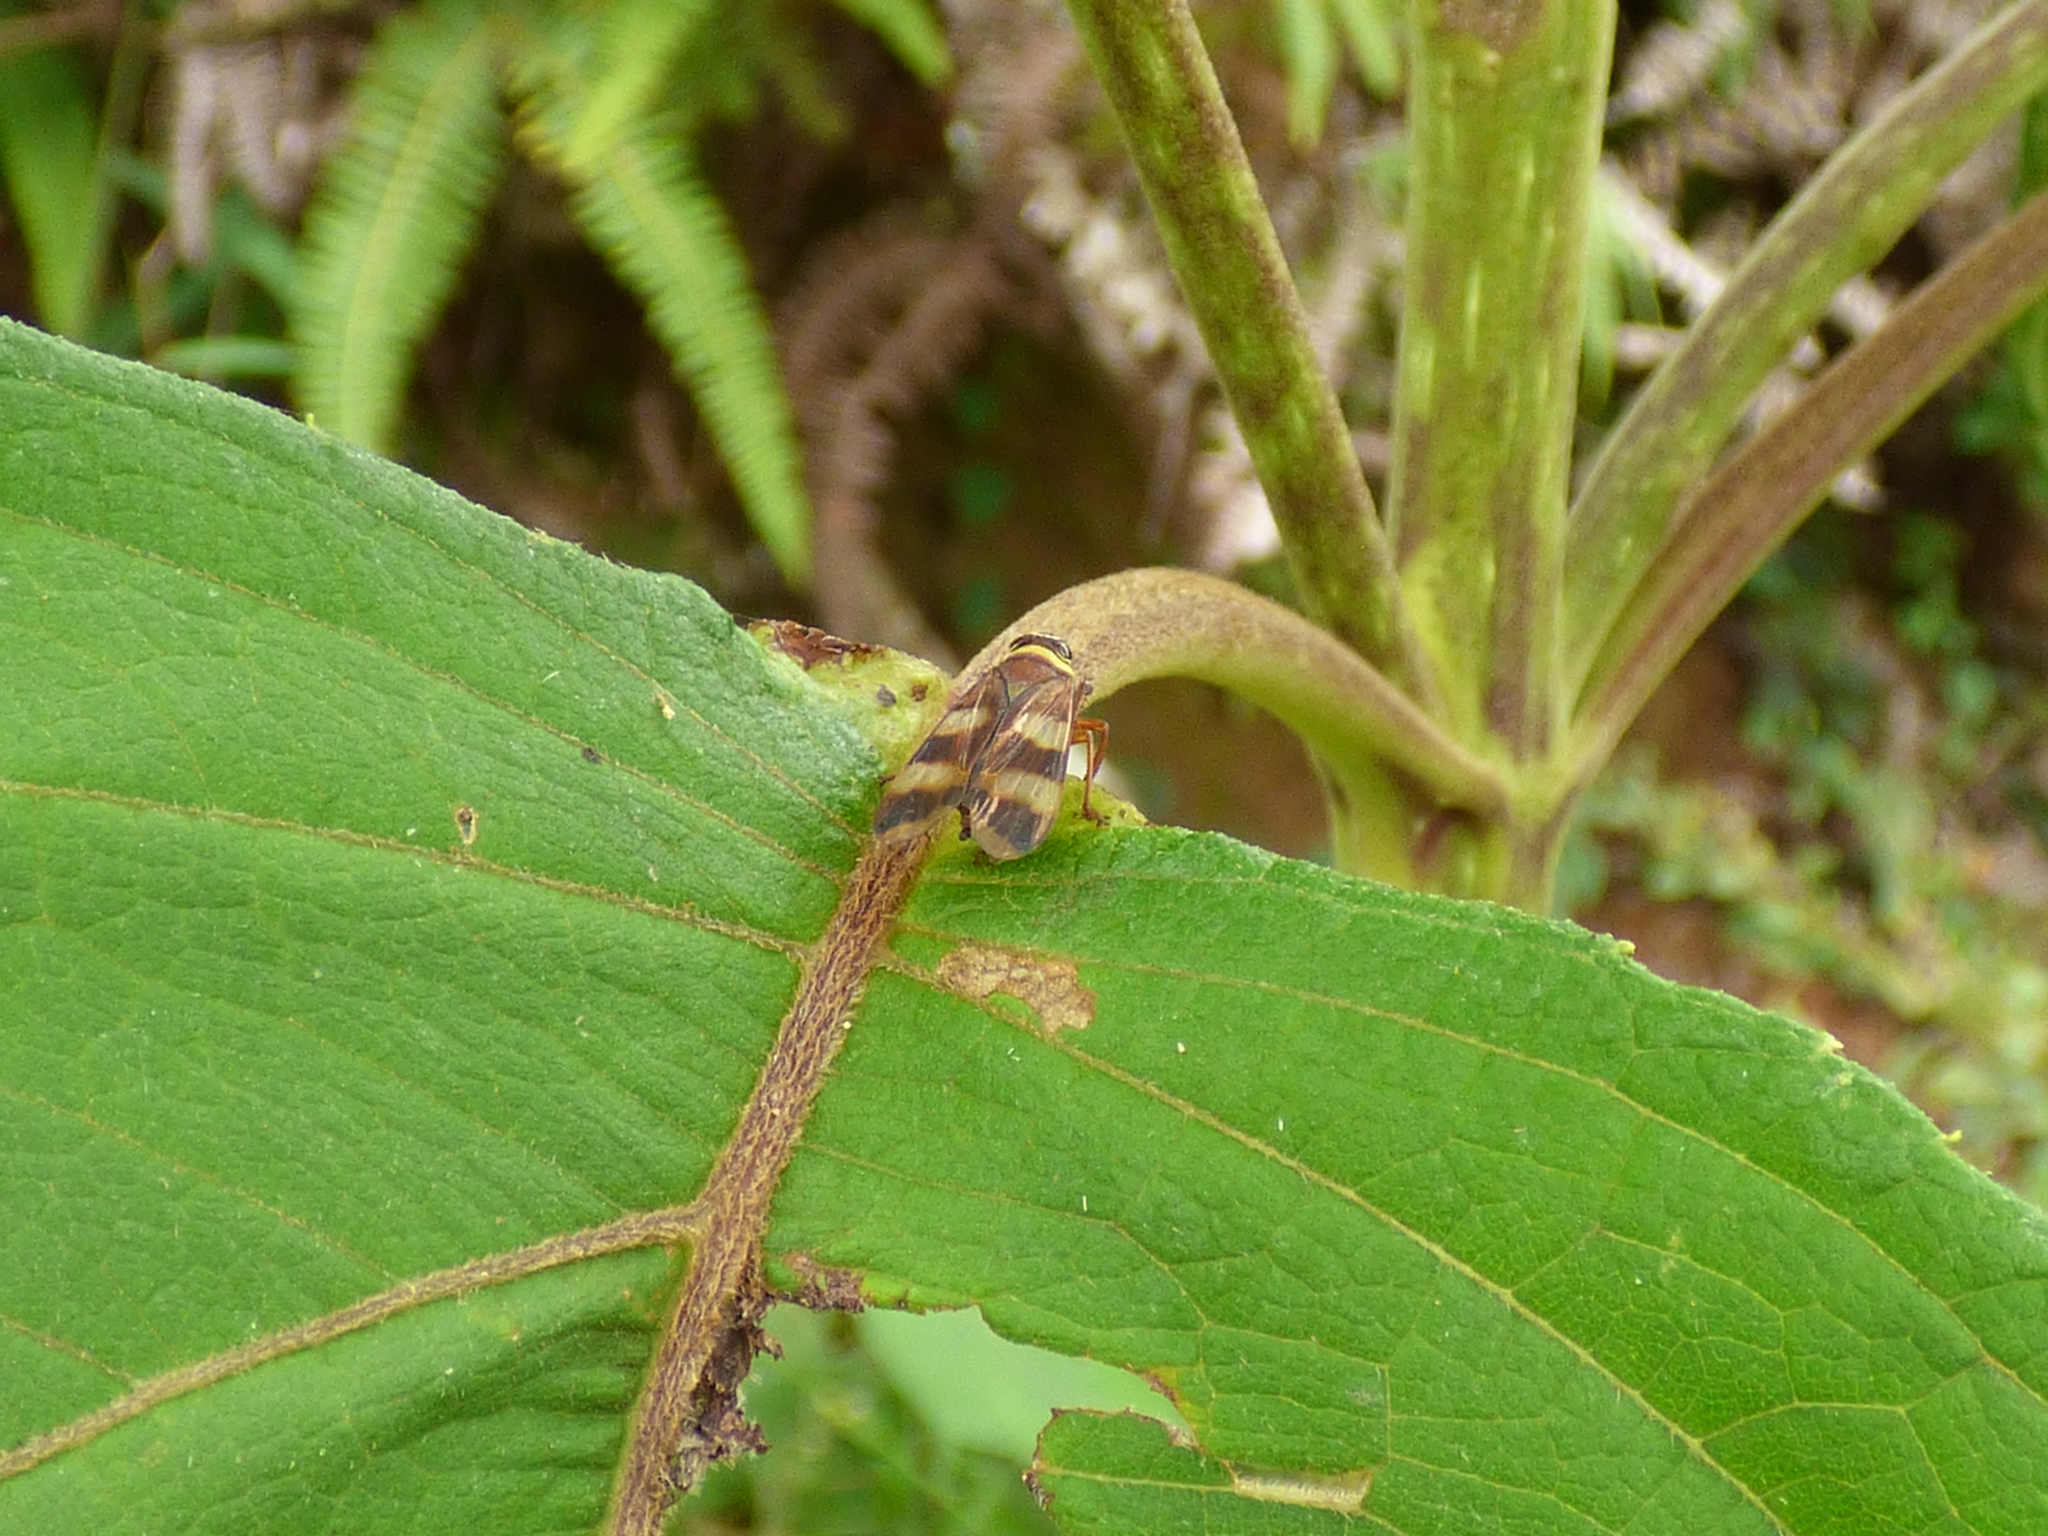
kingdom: Animalia
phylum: Arthropoda
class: Insecta
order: Hemiptera
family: Cicadellidae
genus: Licontinia
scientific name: Licontinia introducens
